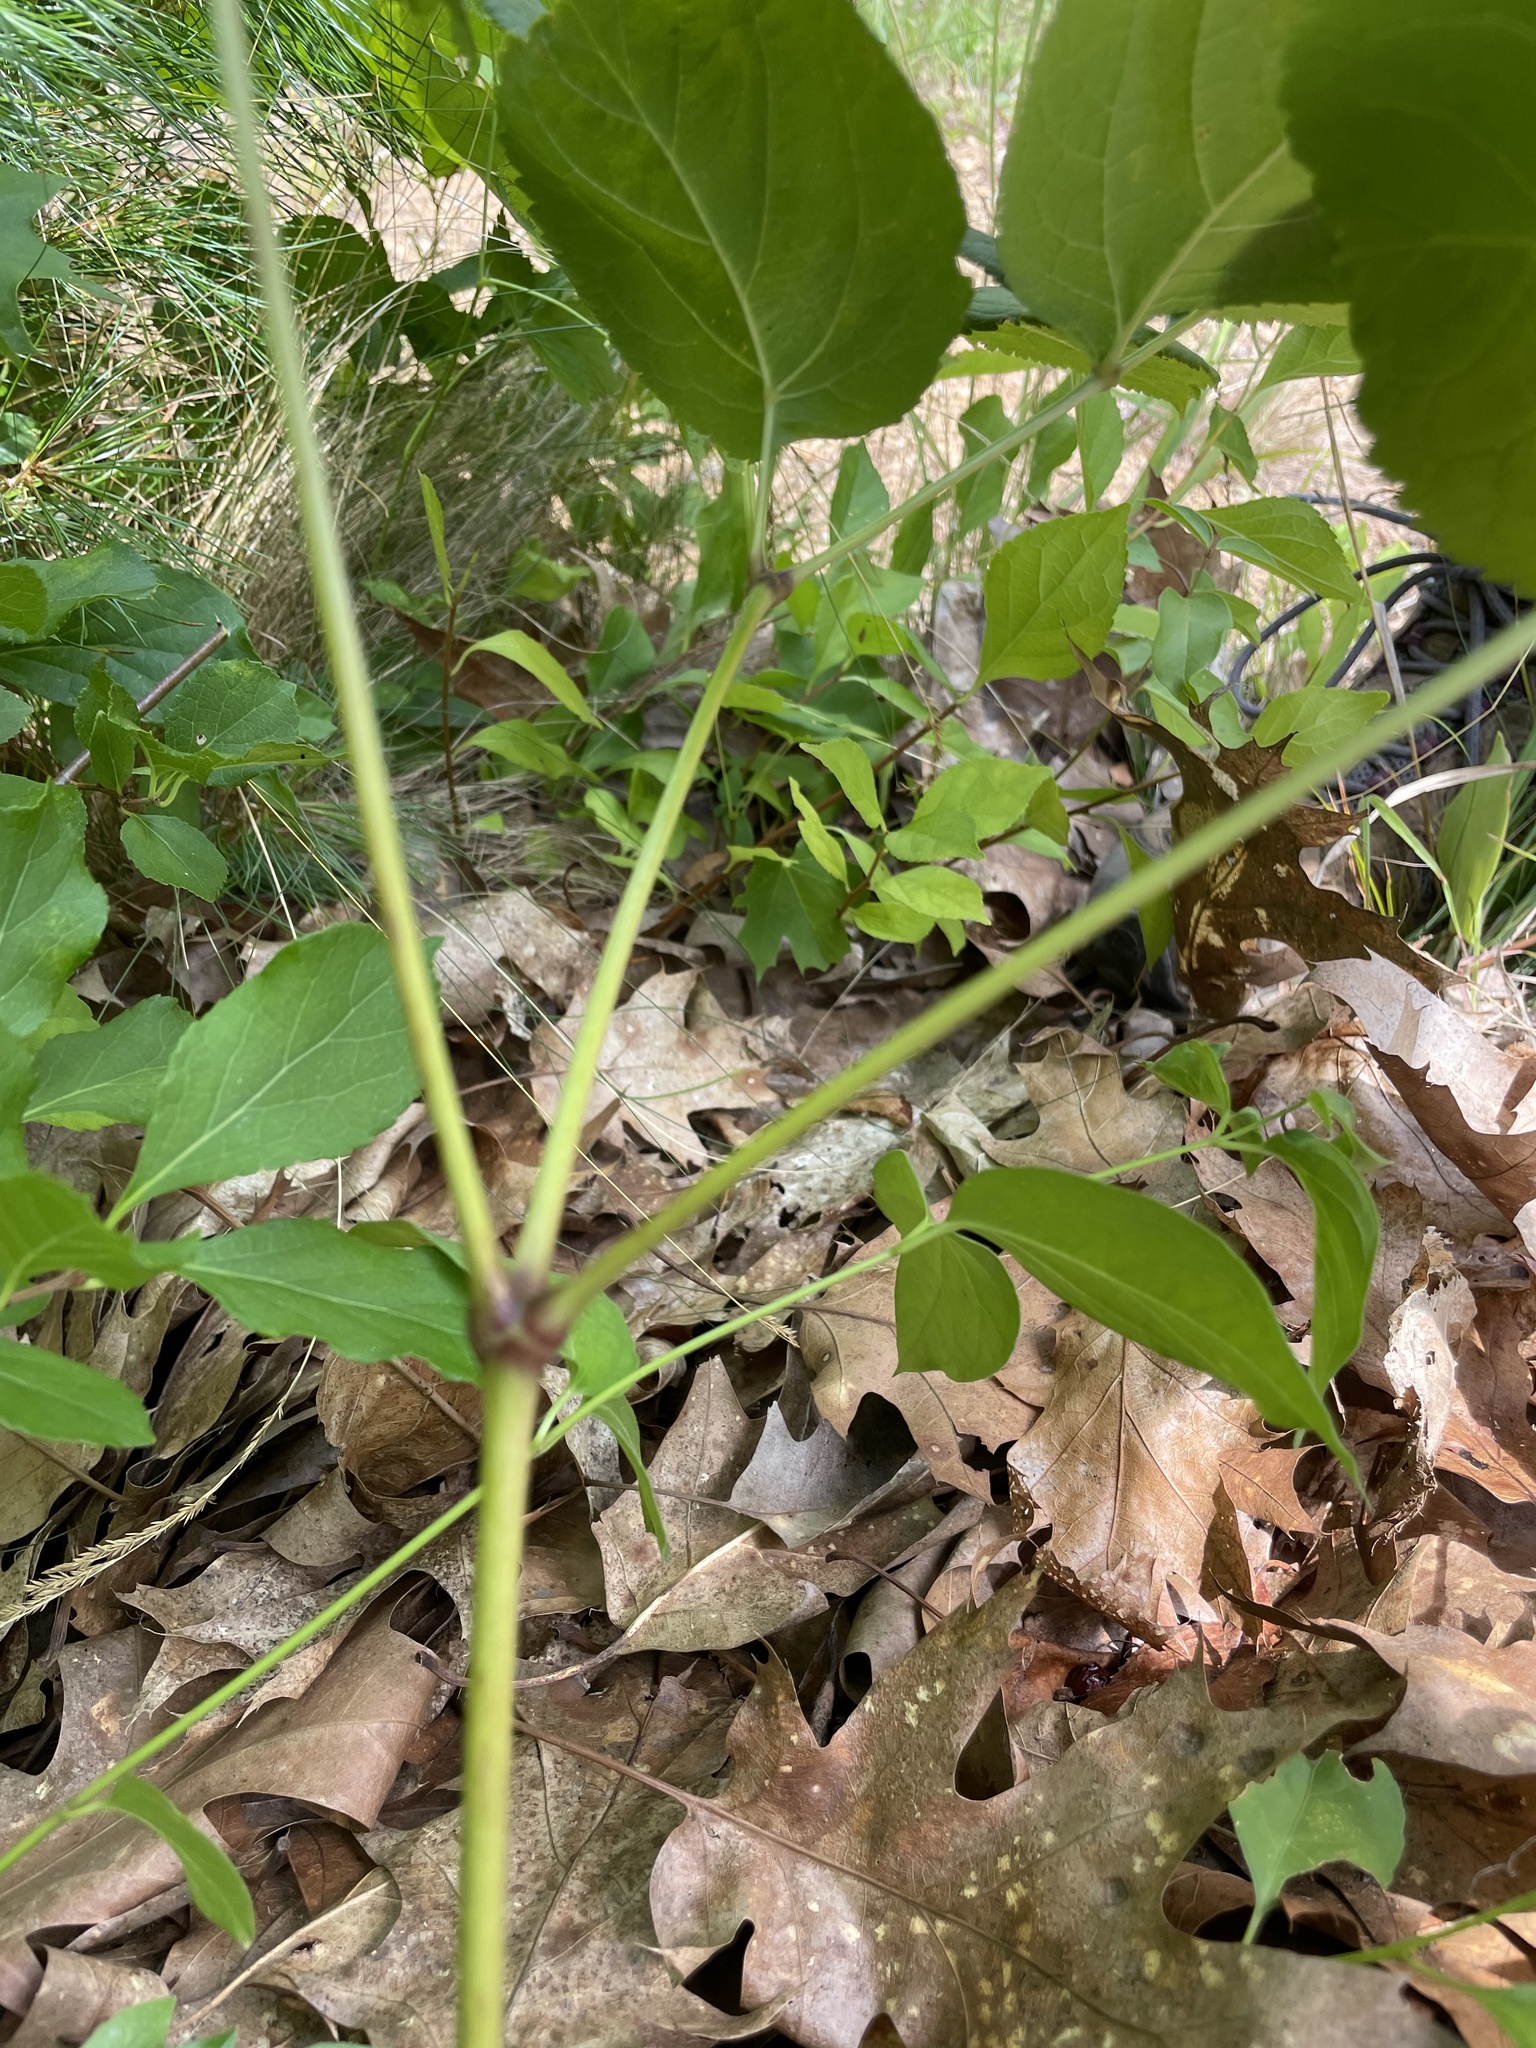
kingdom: Plantae
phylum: Tracheophyta
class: Magnoliopsida
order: Apiales
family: Araliaceae
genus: Aralia
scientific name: Aralia nudicaulis
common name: Wild sarsaparilla
